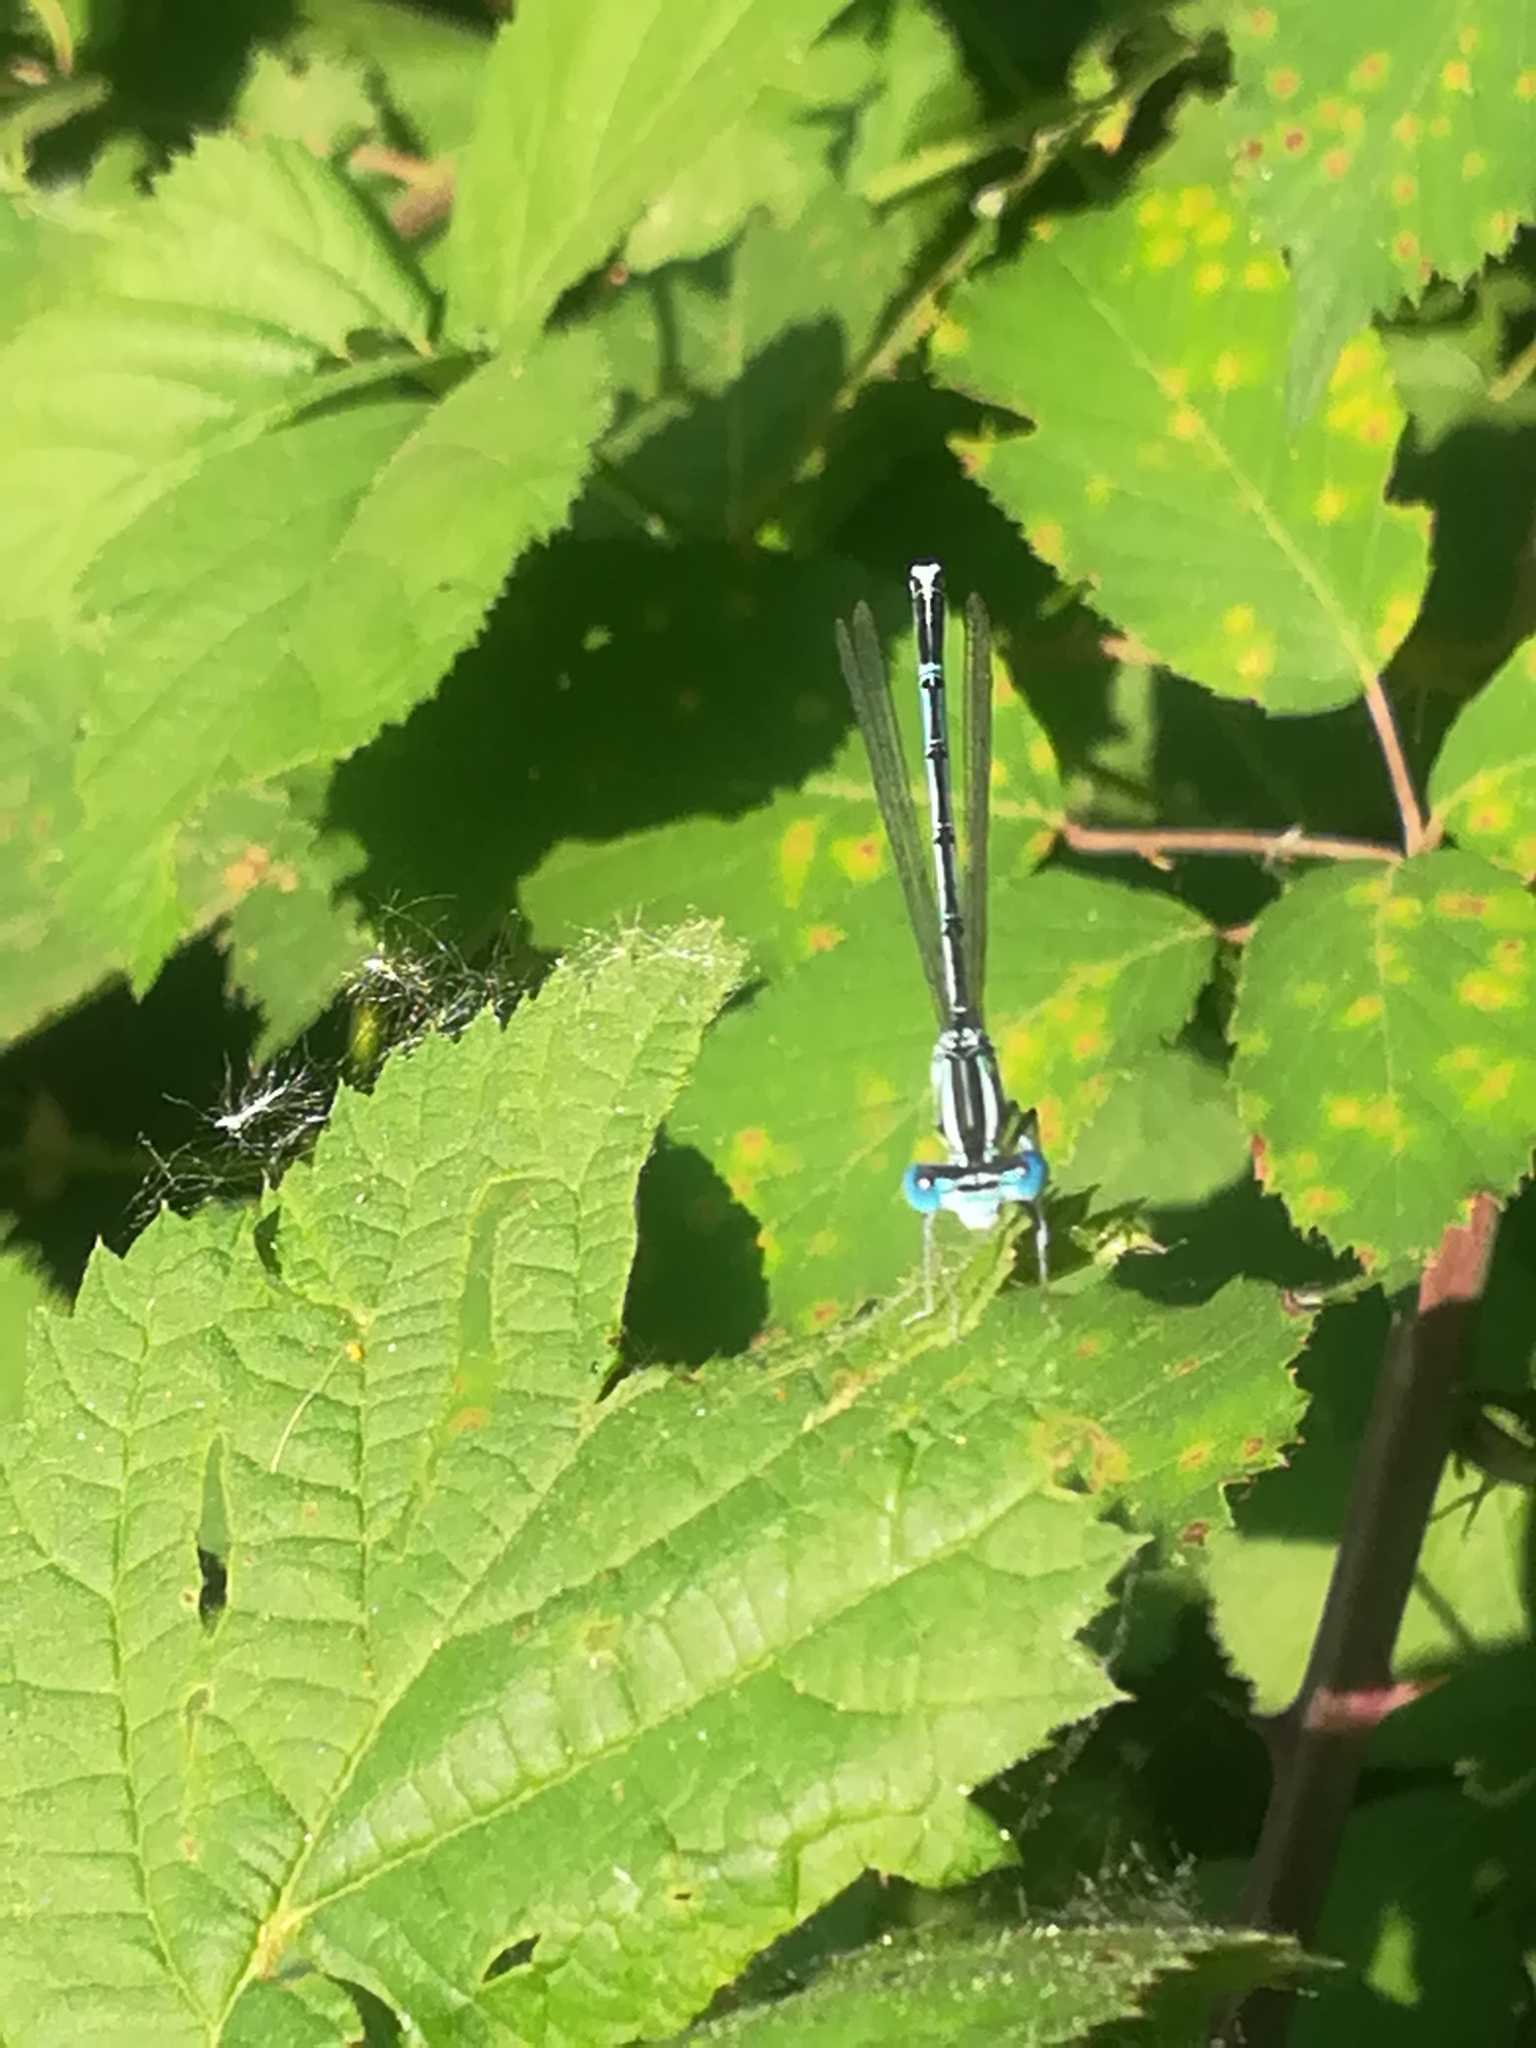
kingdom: Animalia
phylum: Arthropoda
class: Insecta
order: Odonata
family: Platycnemididae
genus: Platycnemis
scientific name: Platycnemis pennipes
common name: White-legged damselfly
